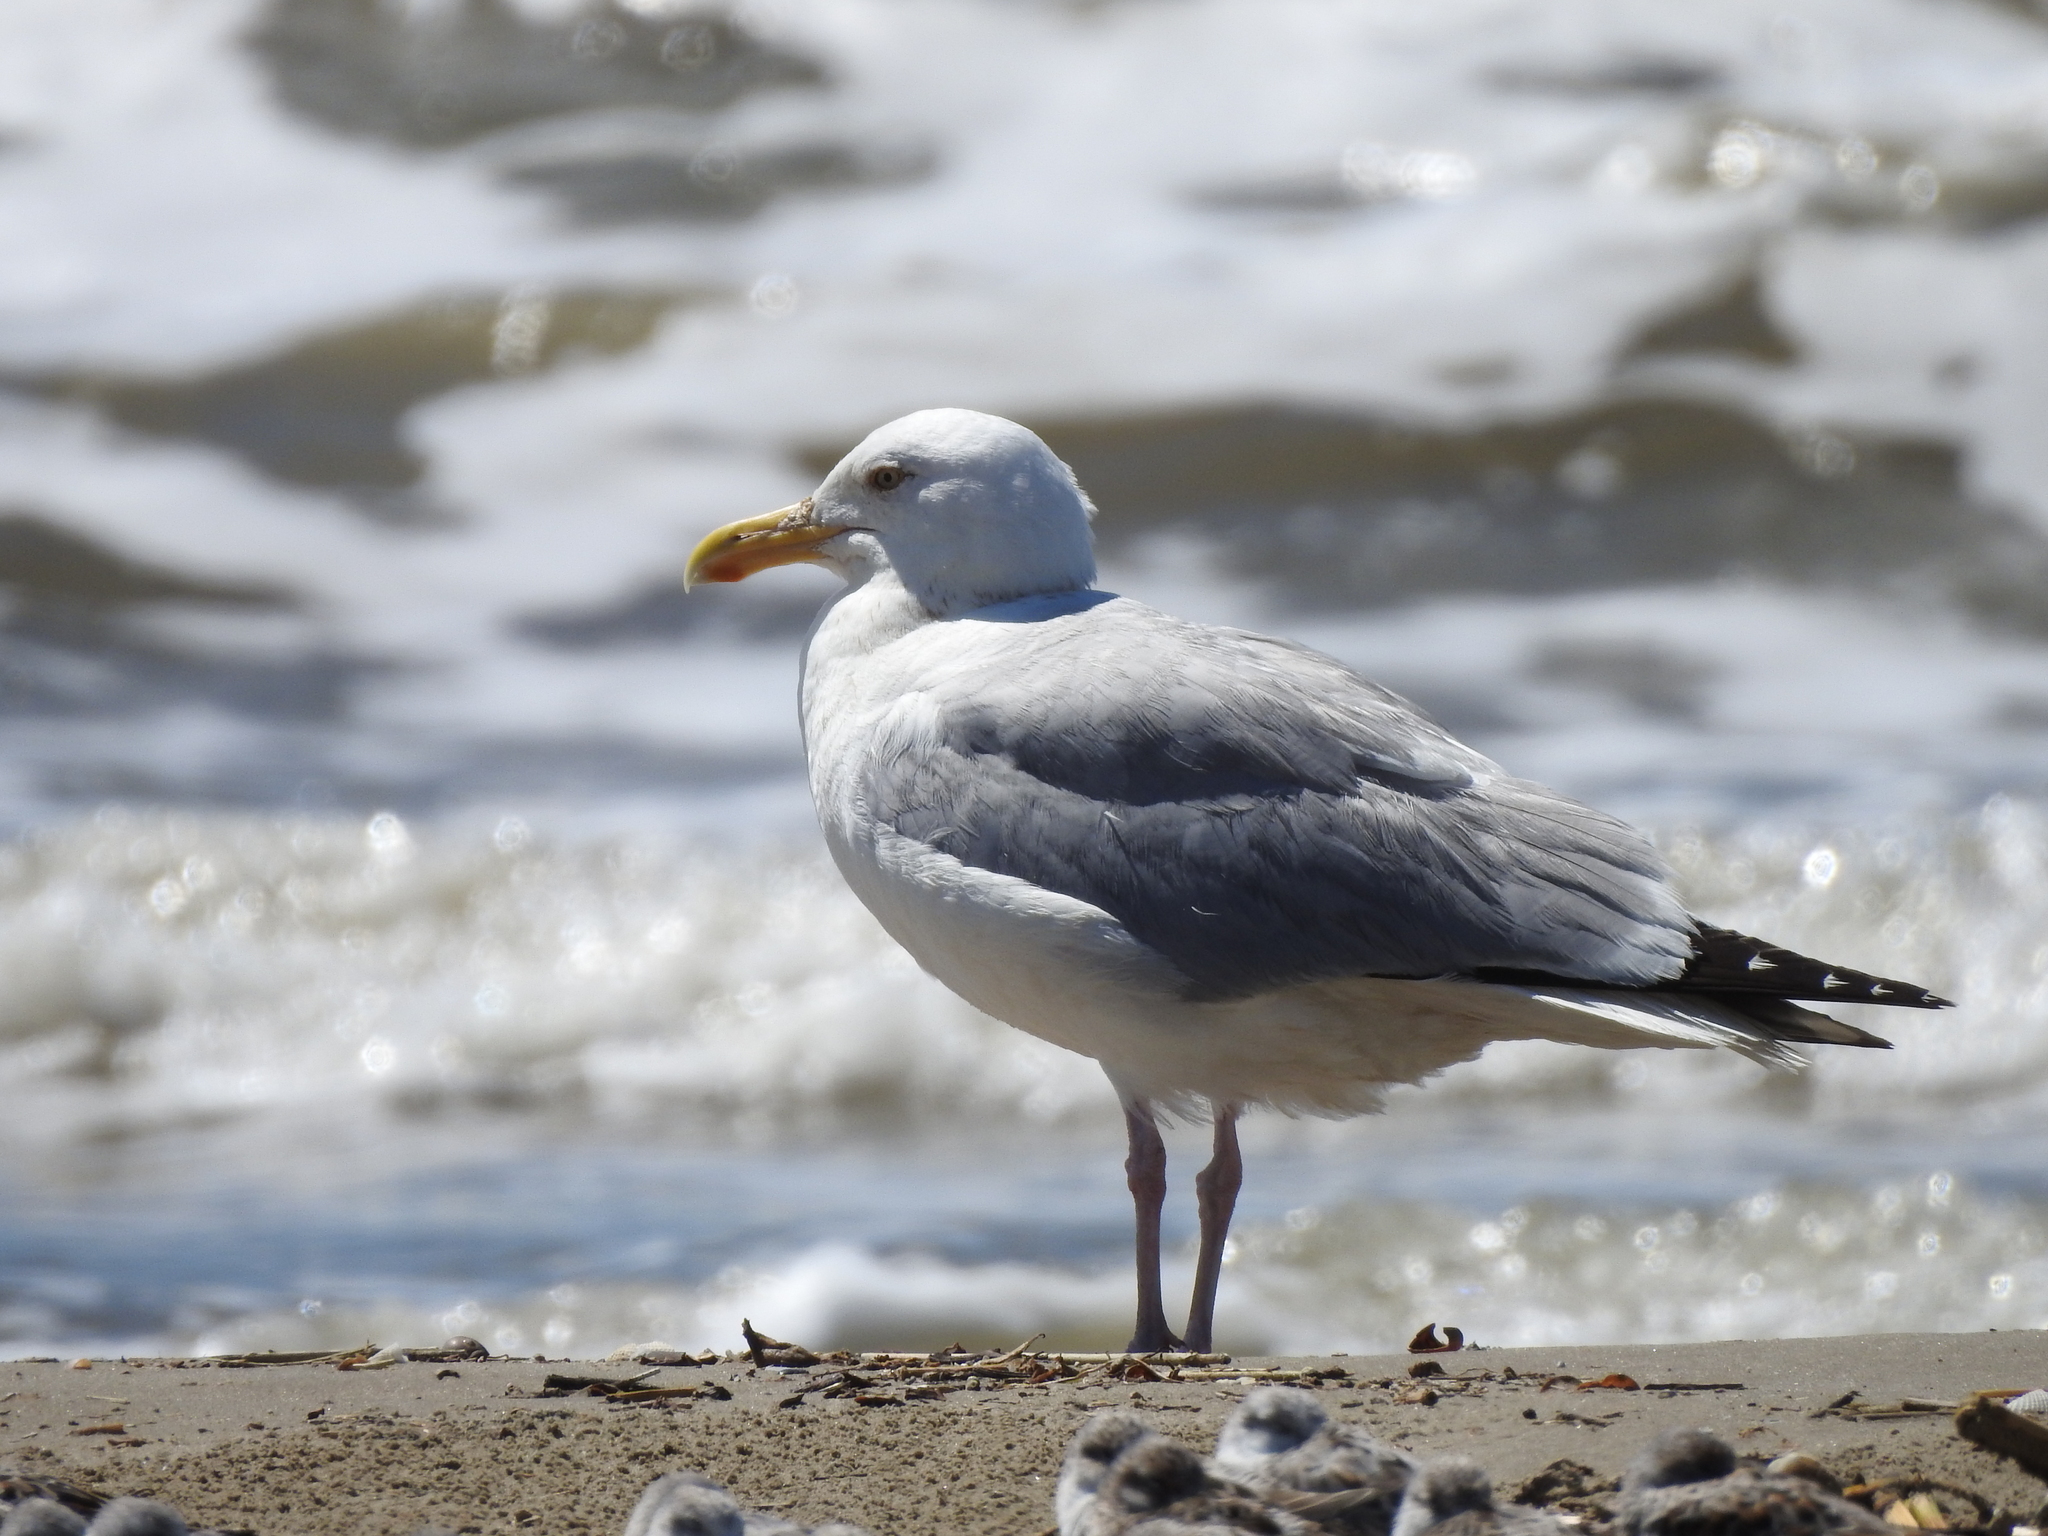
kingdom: Animalia
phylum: Chordata
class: Aves
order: Charadriiformes
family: Laridae
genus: Larus
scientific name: Larus argentatus
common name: Herring gull
